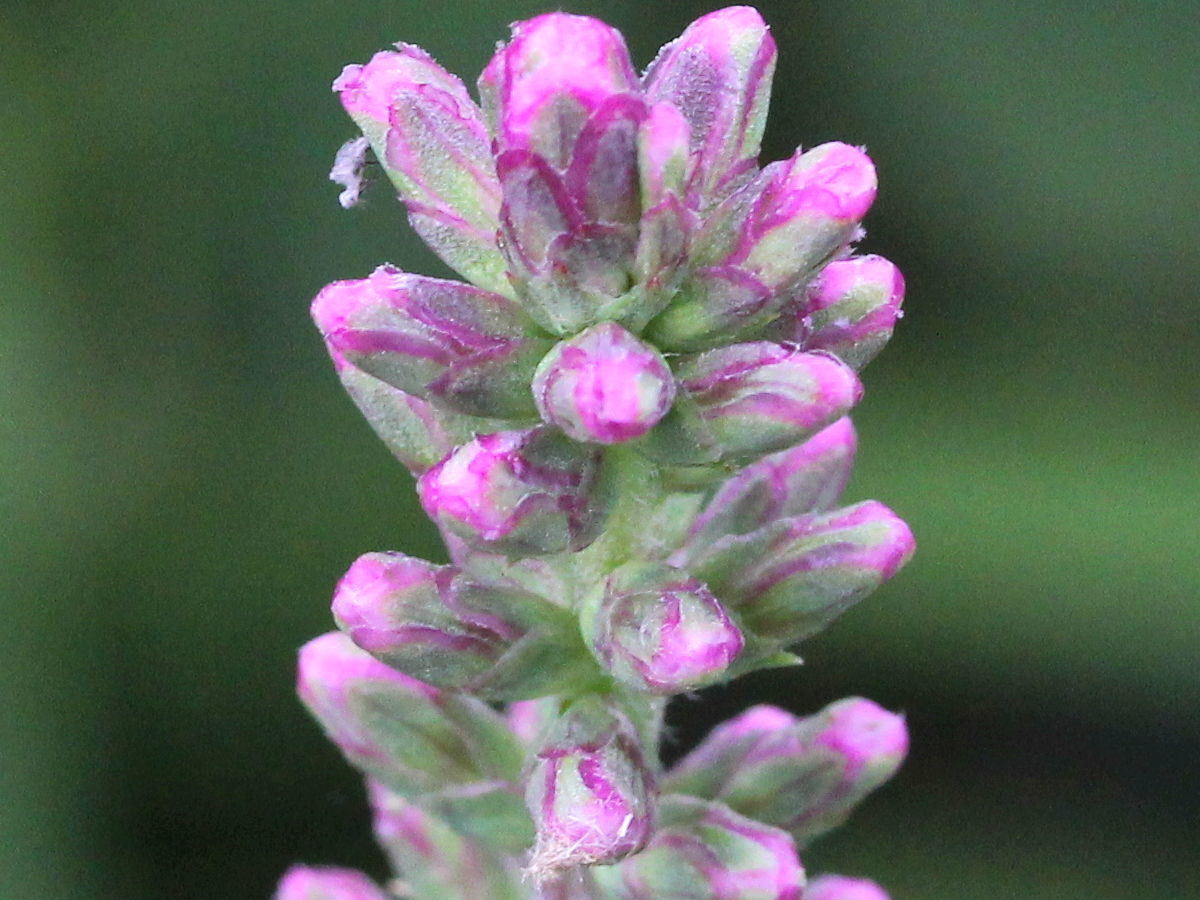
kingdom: Plantae
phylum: Tracheophyta
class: Magnoliopsida
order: Asterales
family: Asteraceae
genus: Liatris
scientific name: Liatris spicata
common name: Florist gayfeather
